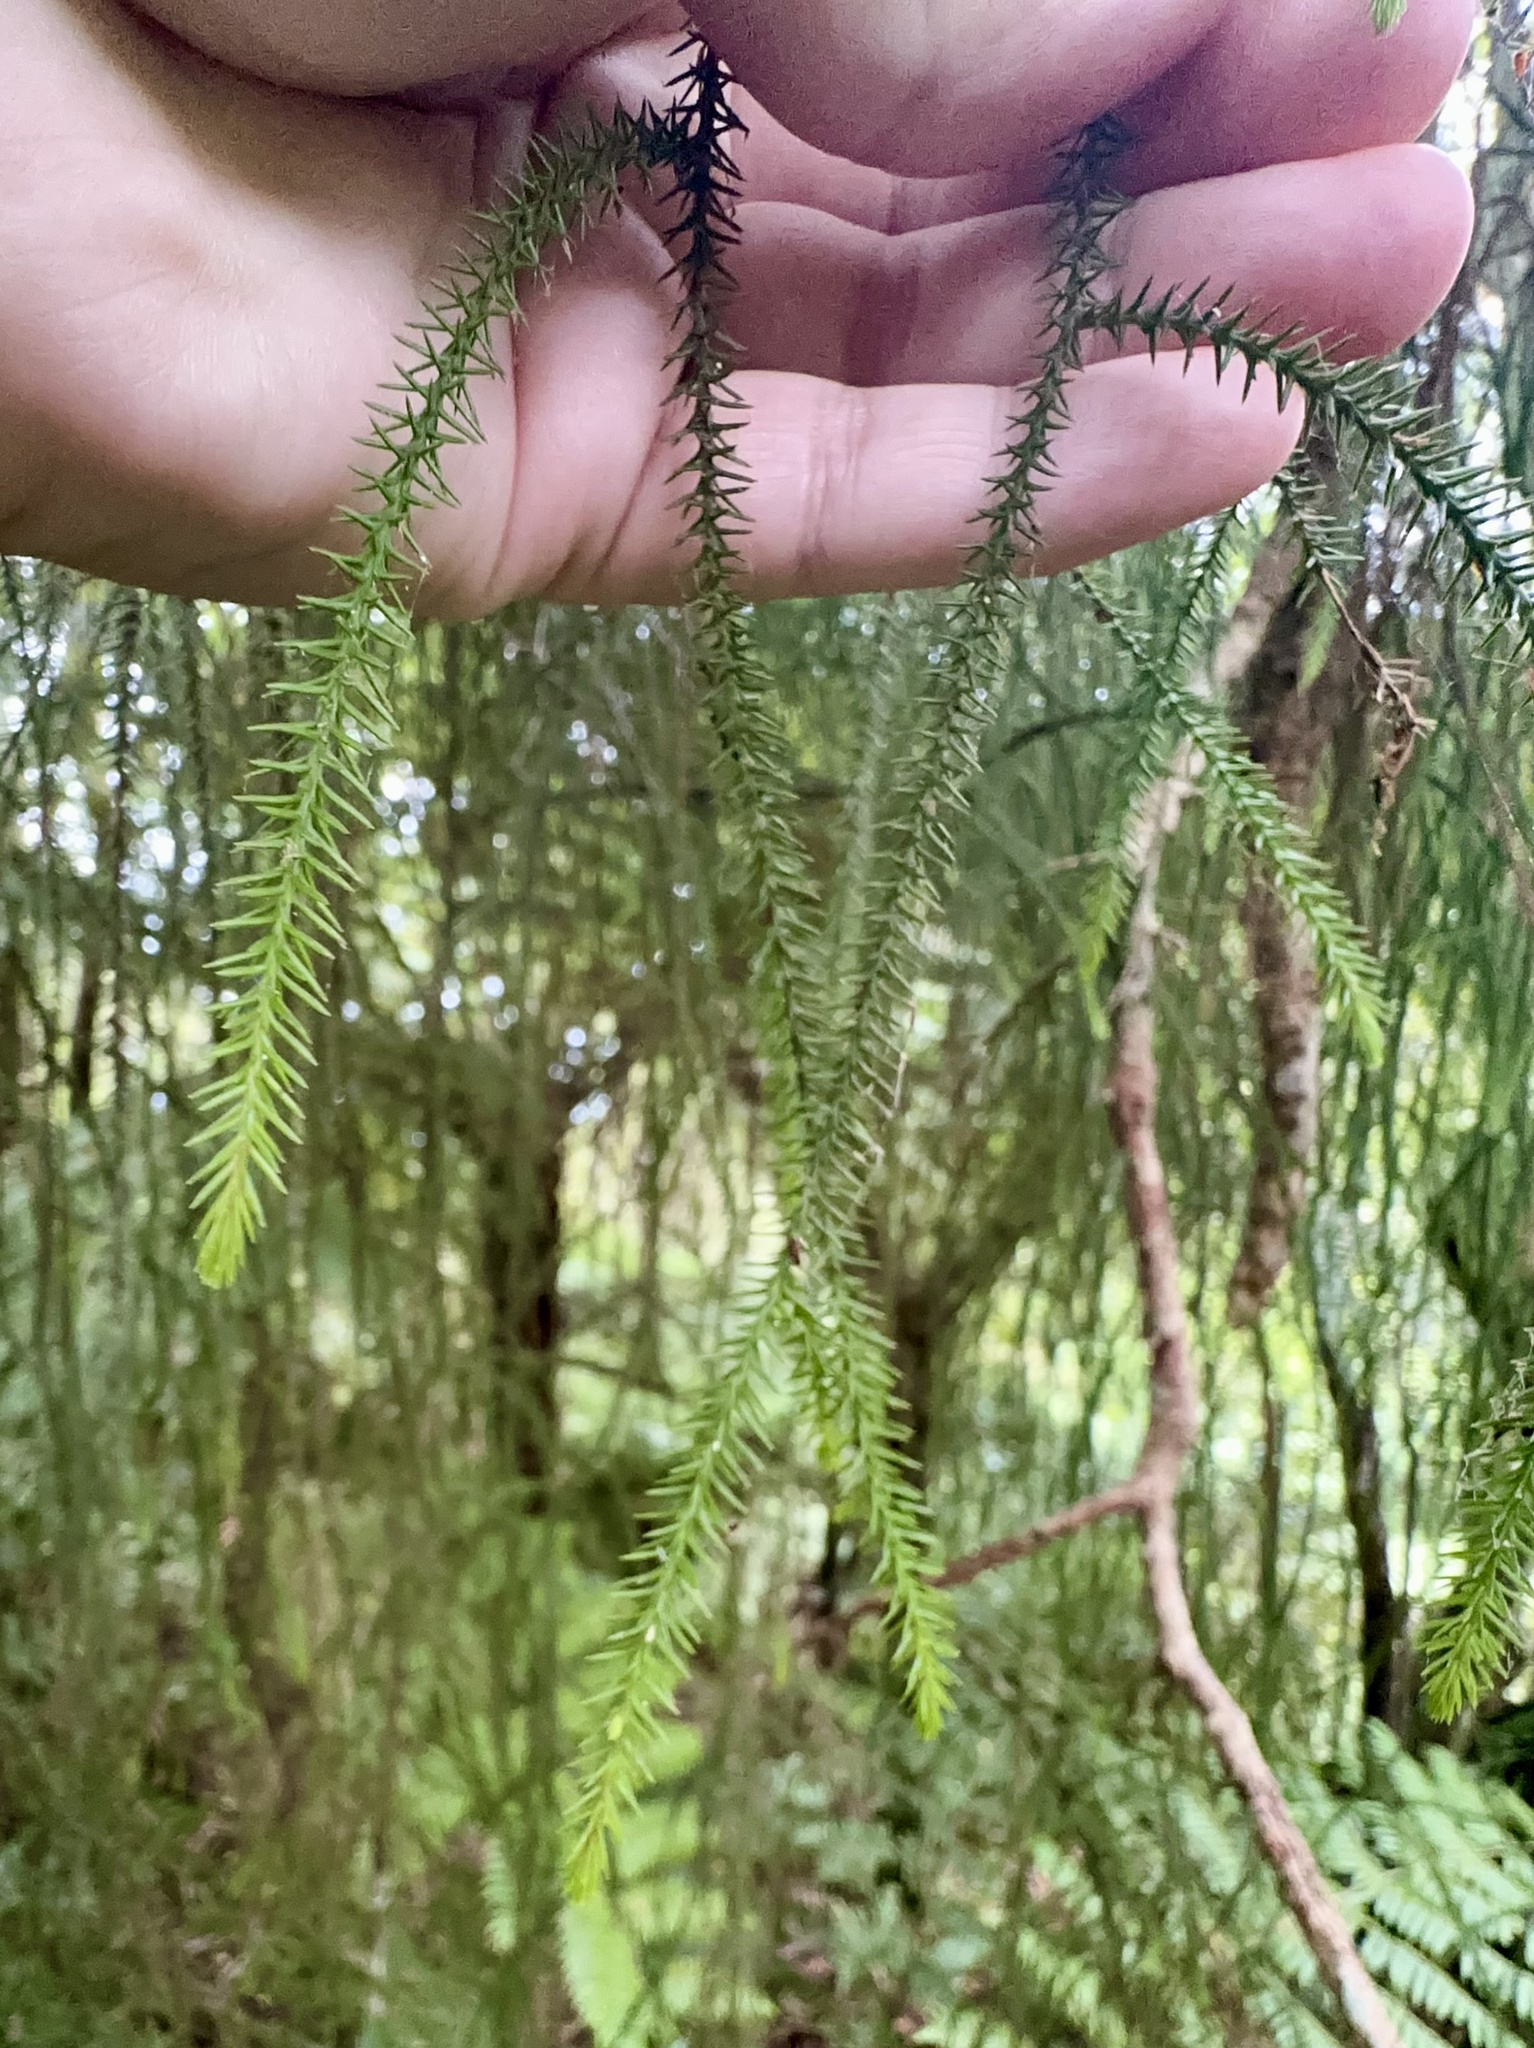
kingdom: Plantae
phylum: Tracheophyta
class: Pinopsida
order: Pinales
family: Podocarpaceae
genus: Dacrydium
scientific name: Dacrydium cupressinum
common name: Red pine
